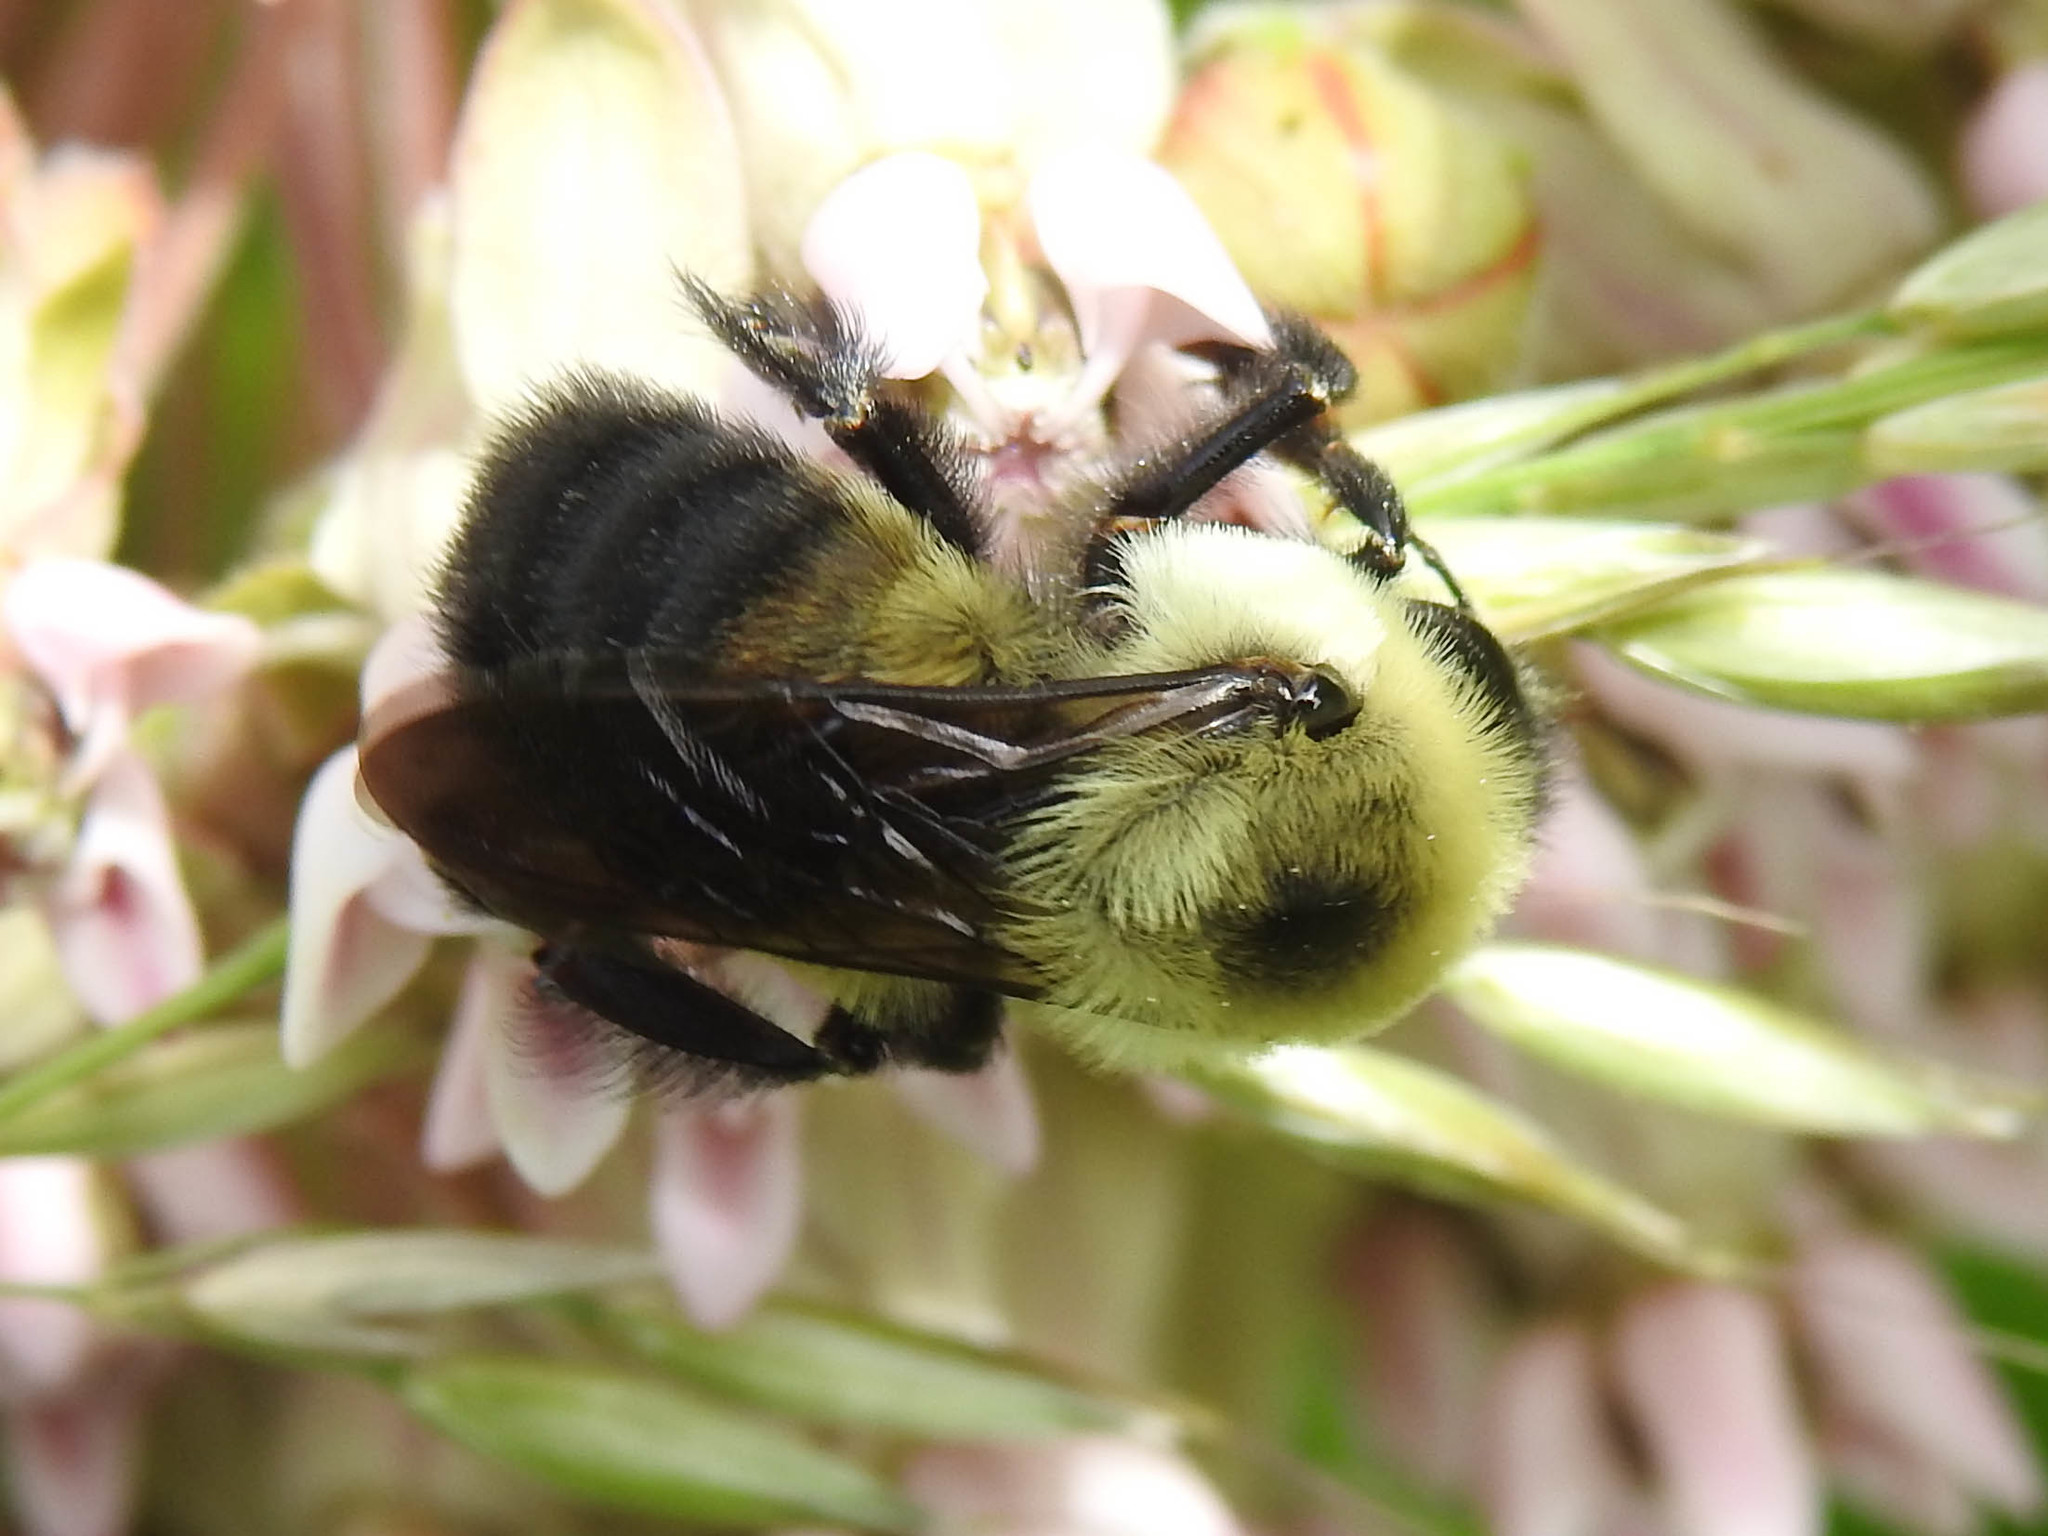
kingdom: Animalia
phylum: Arthropoda
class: Insecta
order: Hymenoptera
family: Apidae
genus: Bombus
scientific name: Bombus griseocollis
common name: Brown-belted bumble bee
